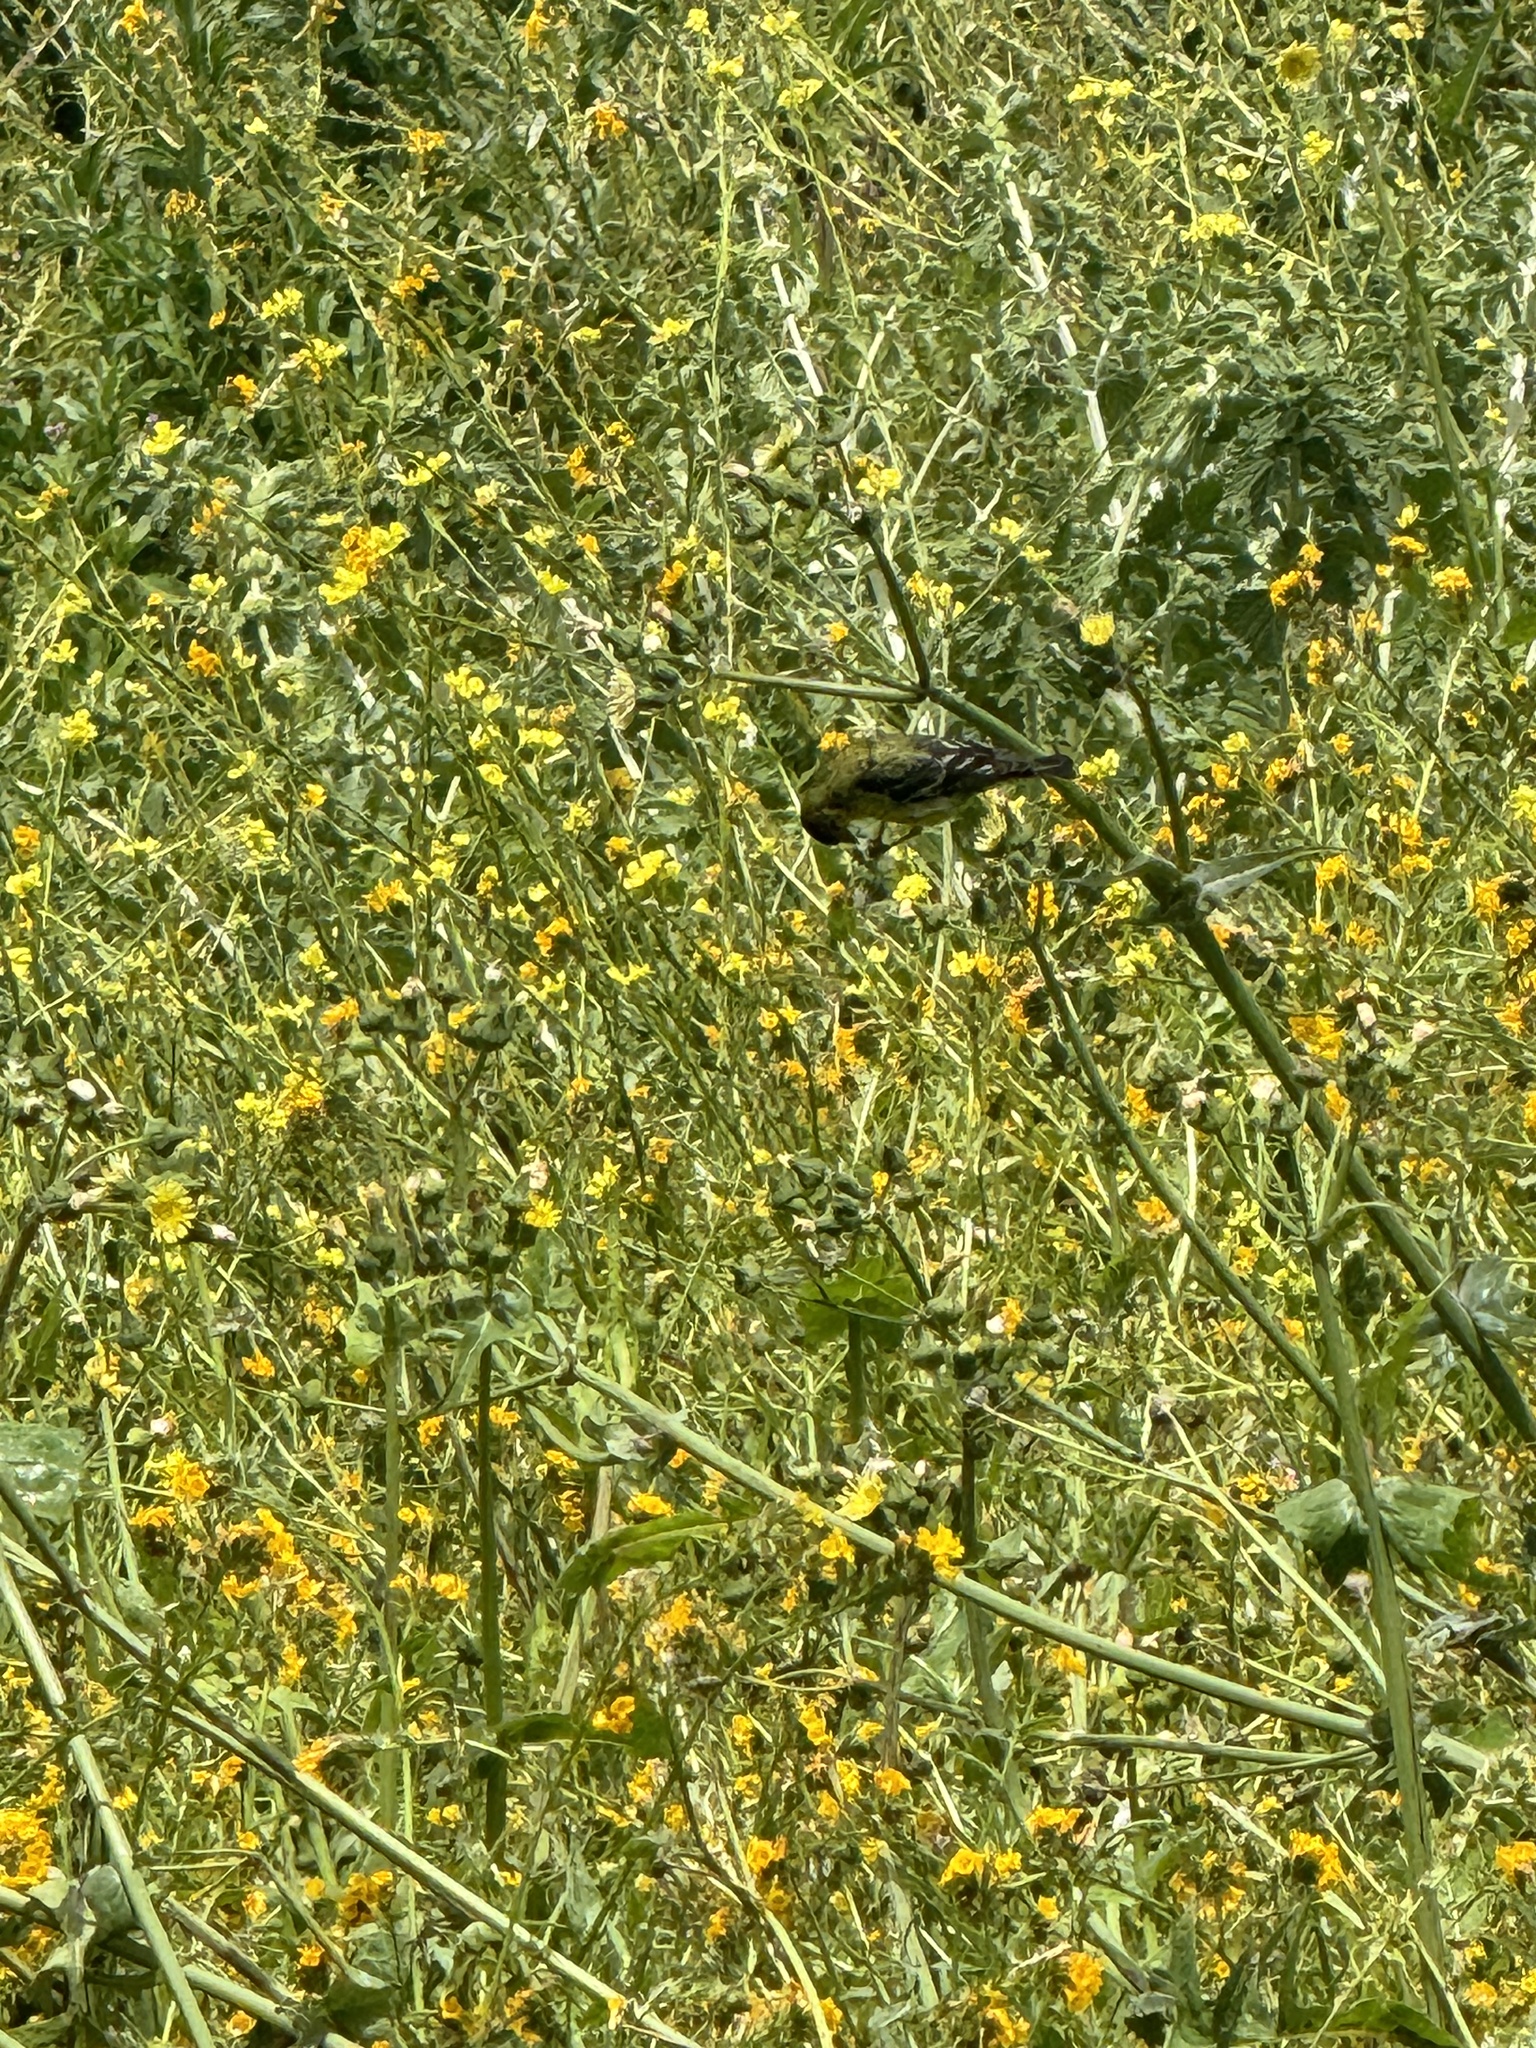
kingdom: Animalia
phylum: Chordata
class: Aves
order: Passeriformes
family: Fringillidae
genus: Spinus
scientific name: Spinus psaltria
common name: Lesser goldfinch
